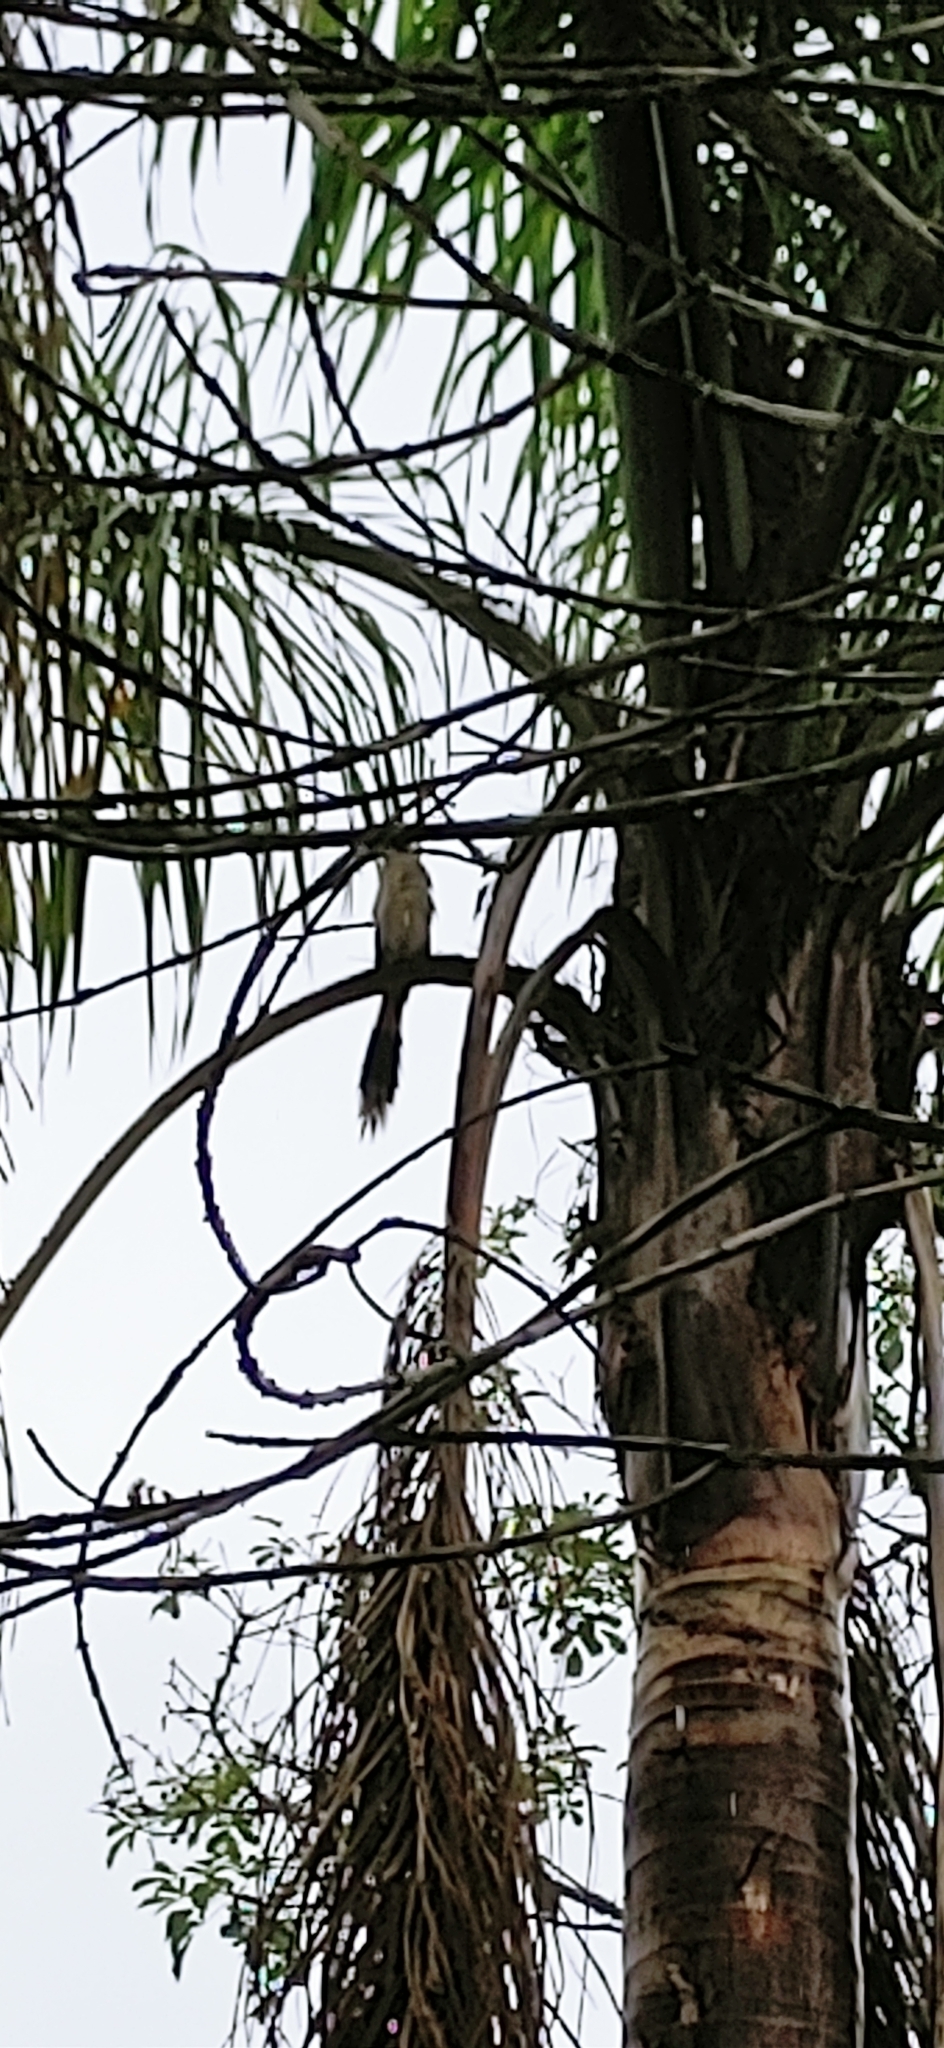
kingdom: Animalia
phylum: Chordata
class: Aves
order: Cuculiformes
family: Cuculidae
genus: Guira
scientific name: Guira guira
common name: Guira cuckoo
